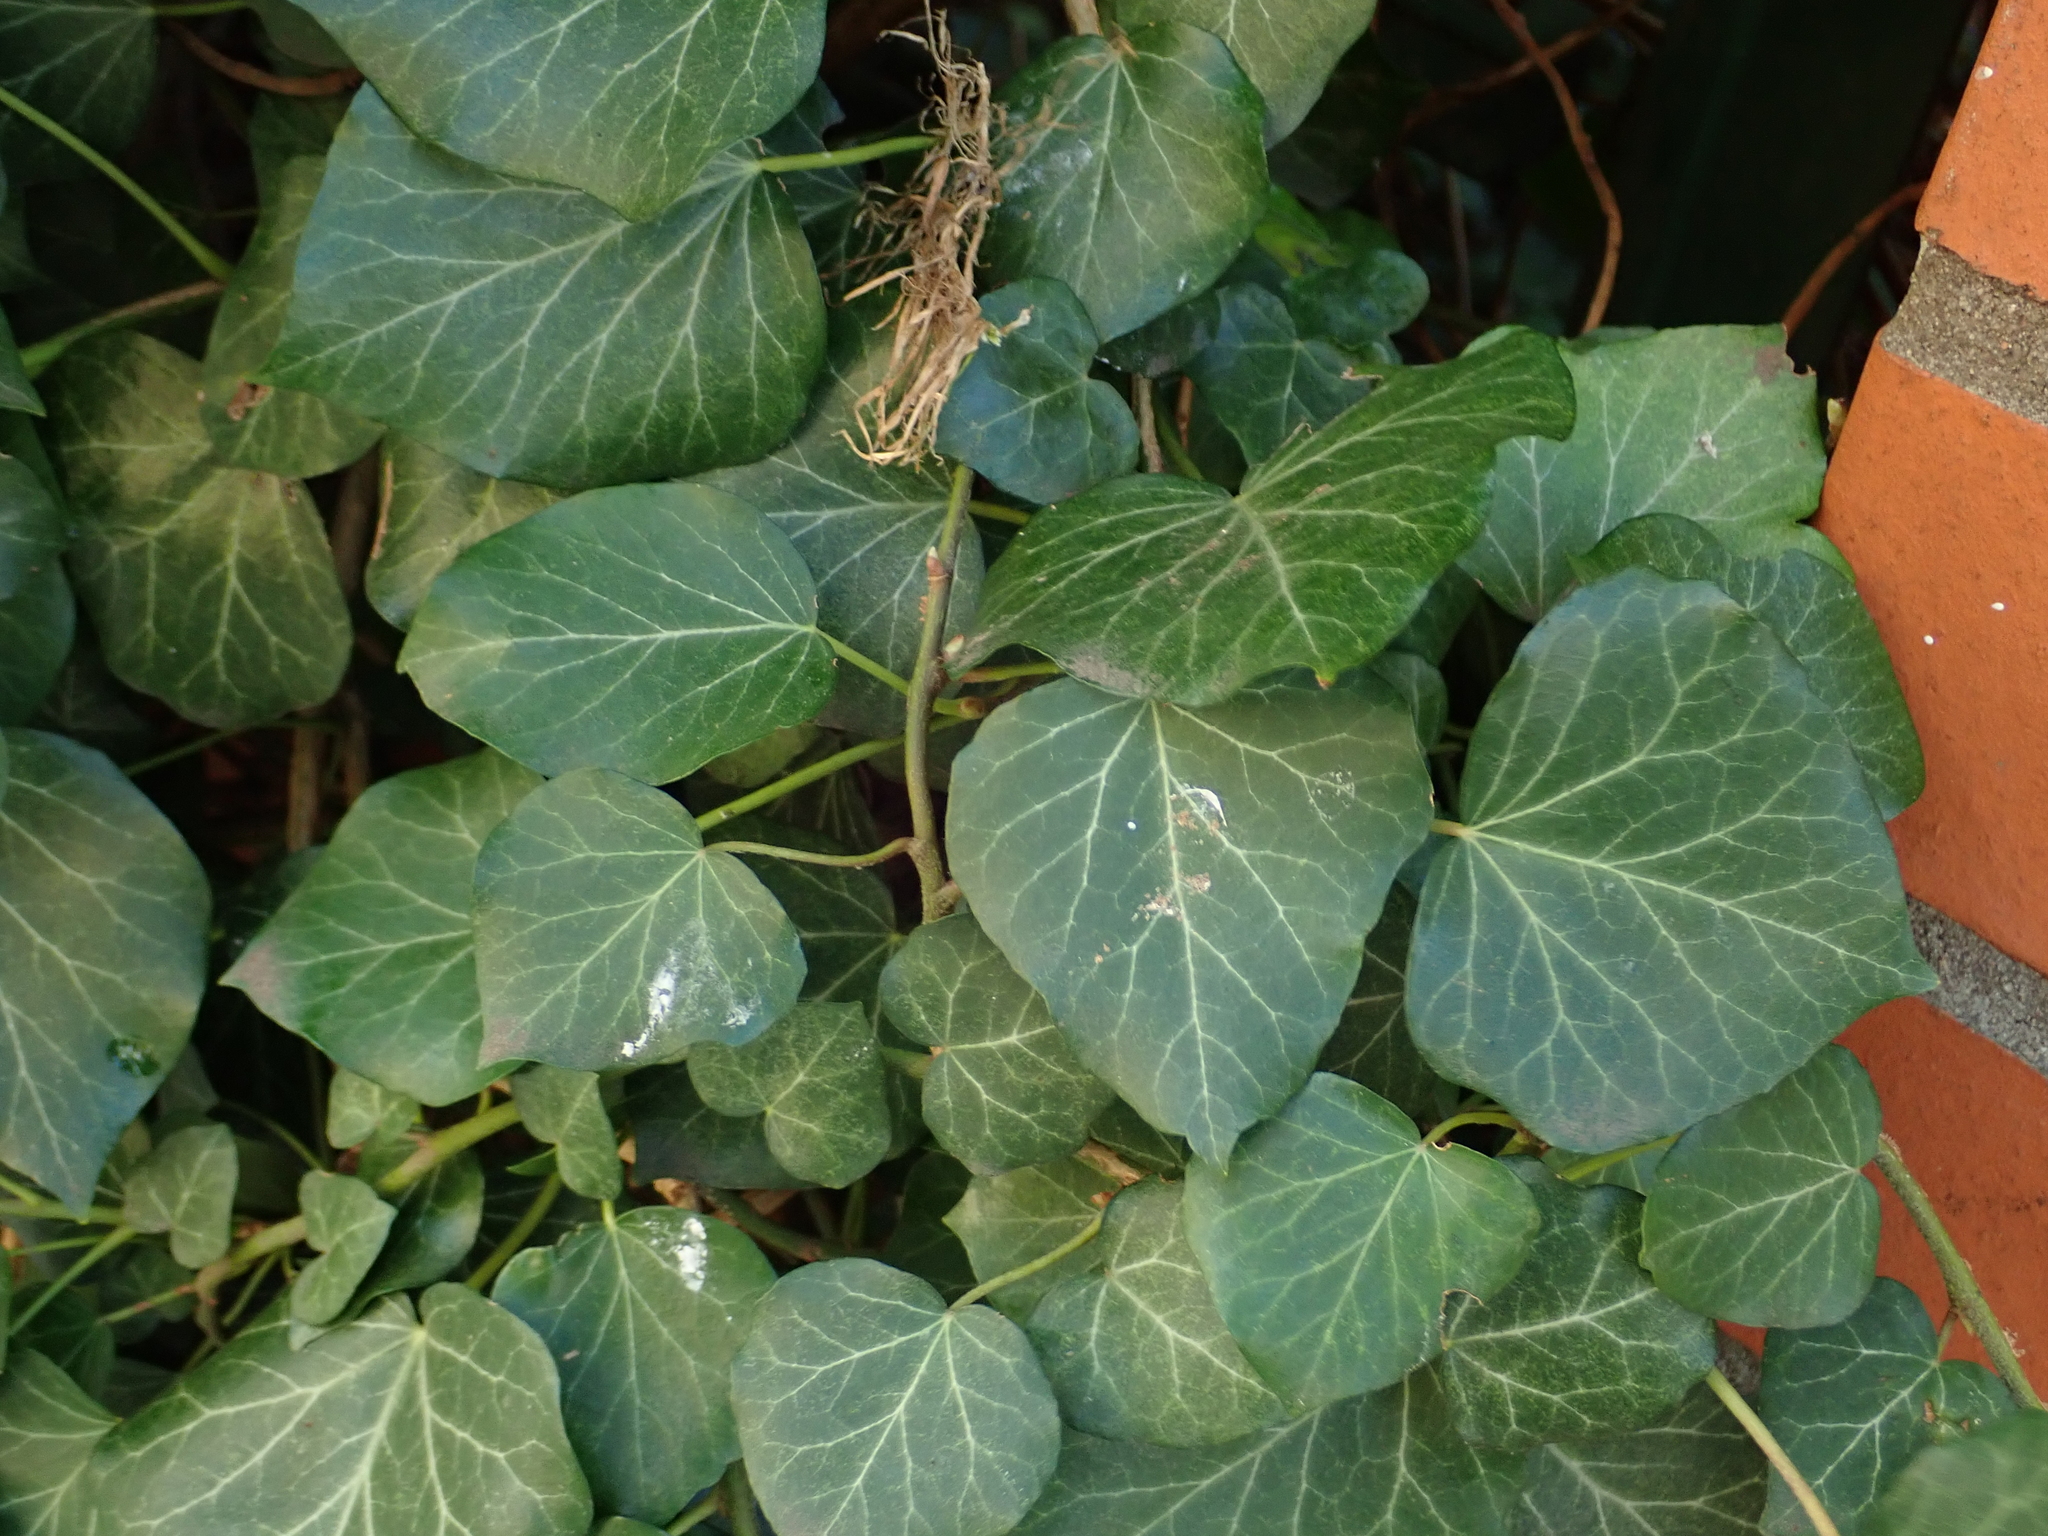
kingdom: Plantae
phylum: Tracheophyta
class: Magnoliopsida
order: Apiales
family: Araliaceae
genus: Hedera
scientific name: Hedera helix
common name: Ivy
